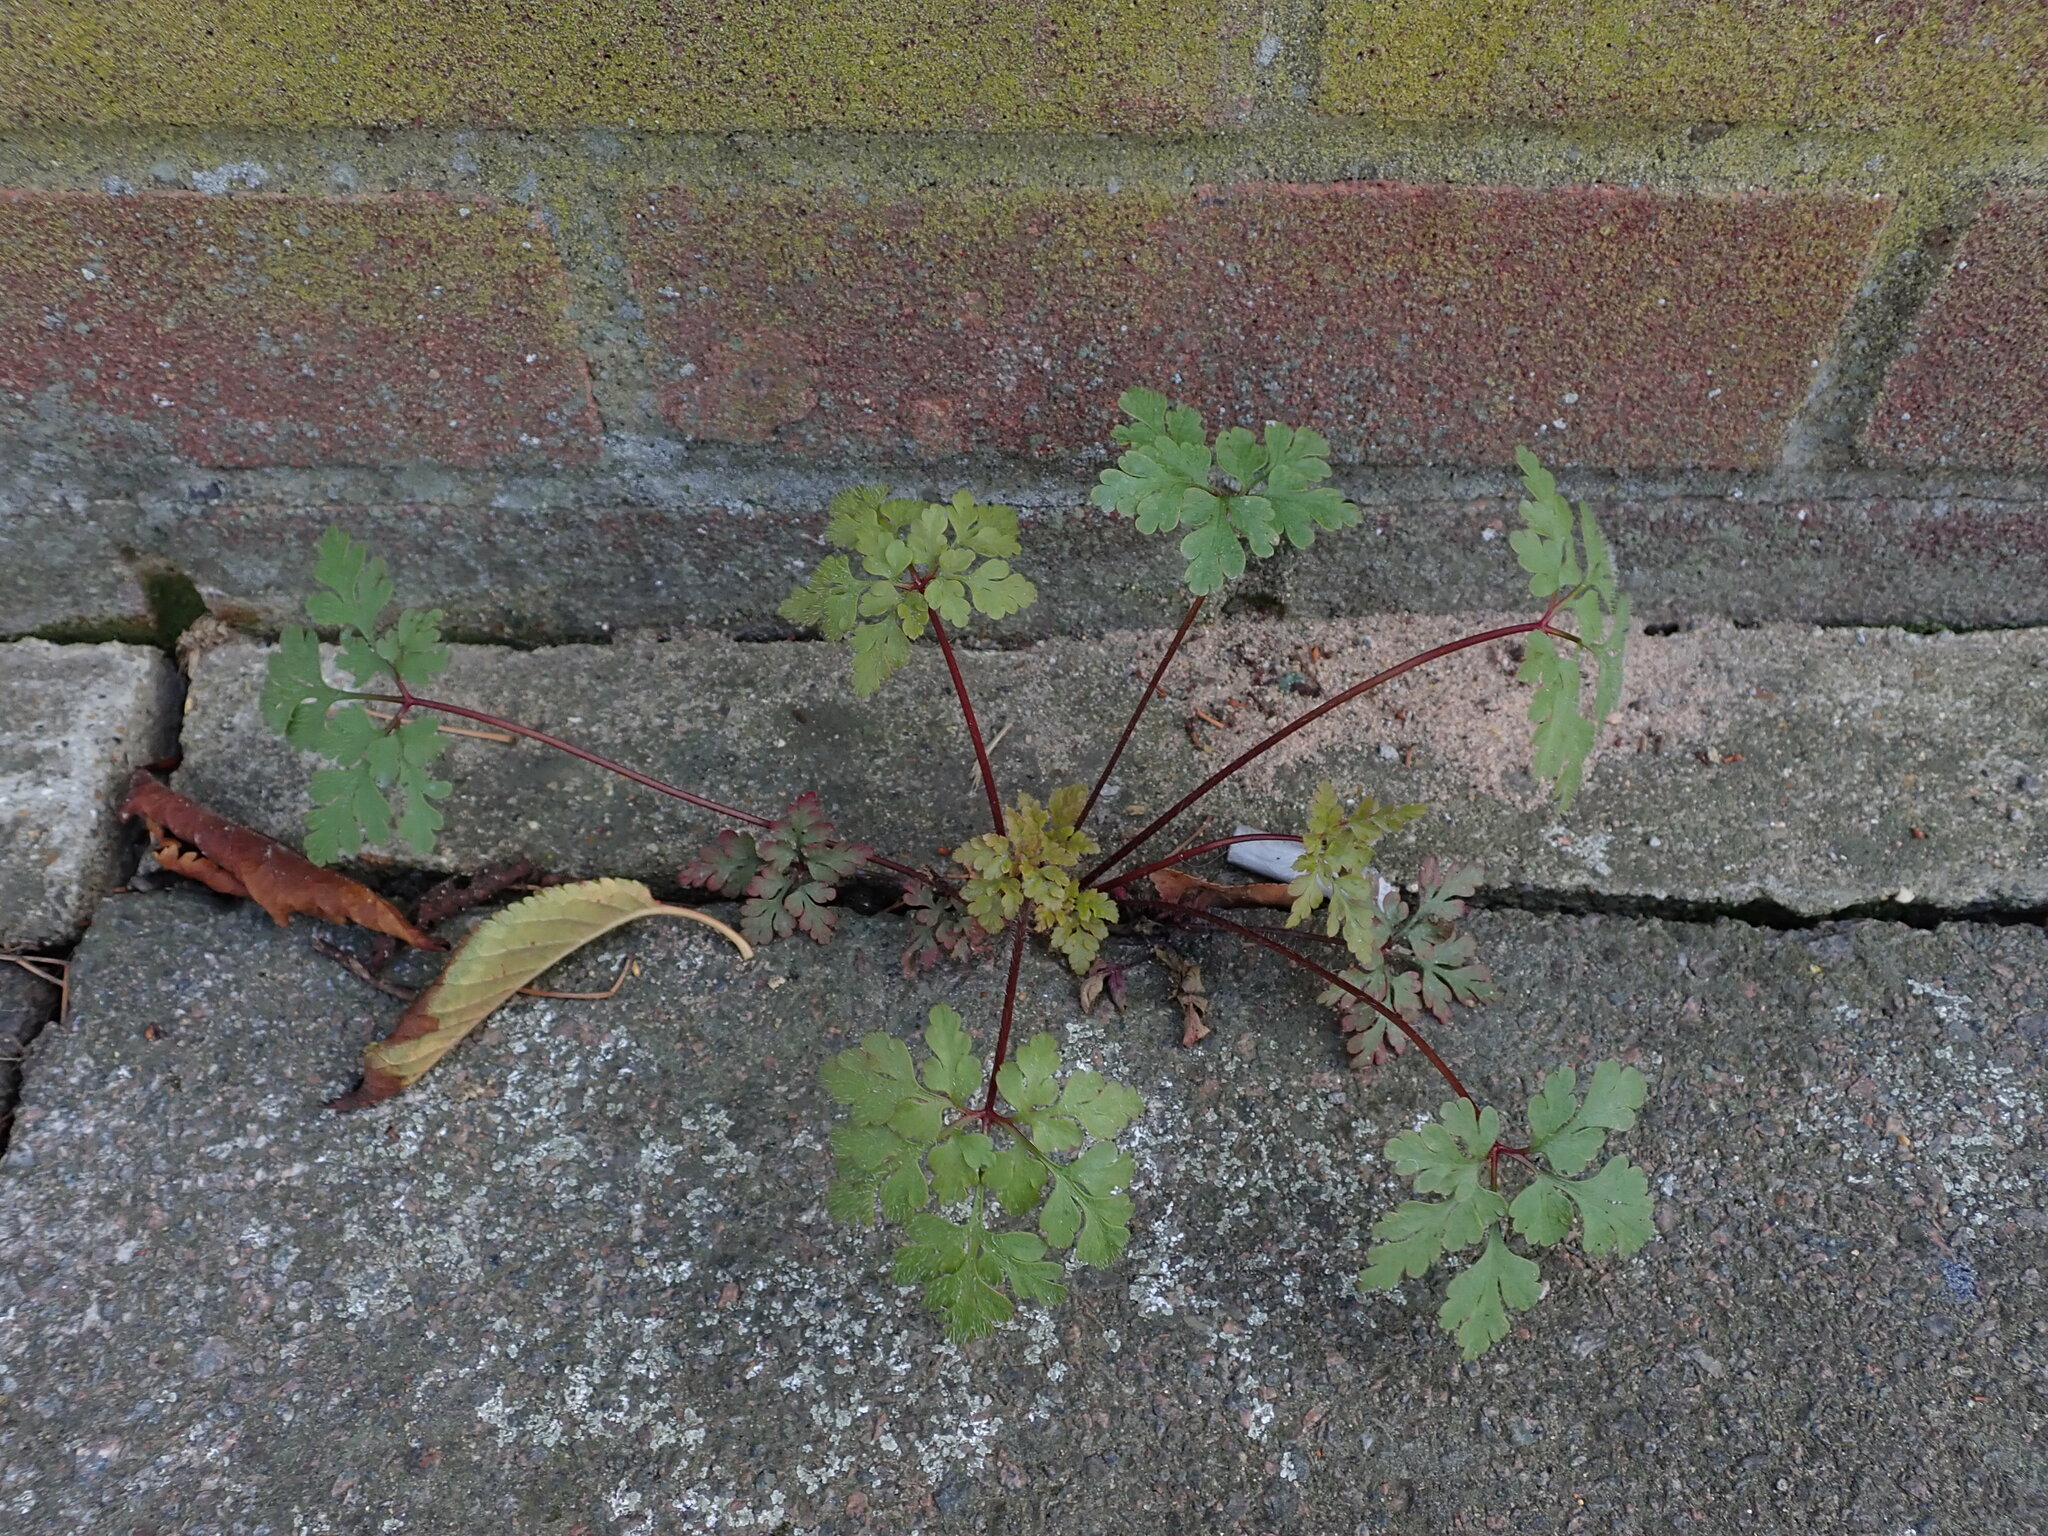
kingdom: Plantae
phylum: Tracheophyta
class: Magnoliopsida
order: Geraniales
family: Geraniaceae
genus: Geranium
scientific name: Geranium robertianum
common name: Herb-robert
